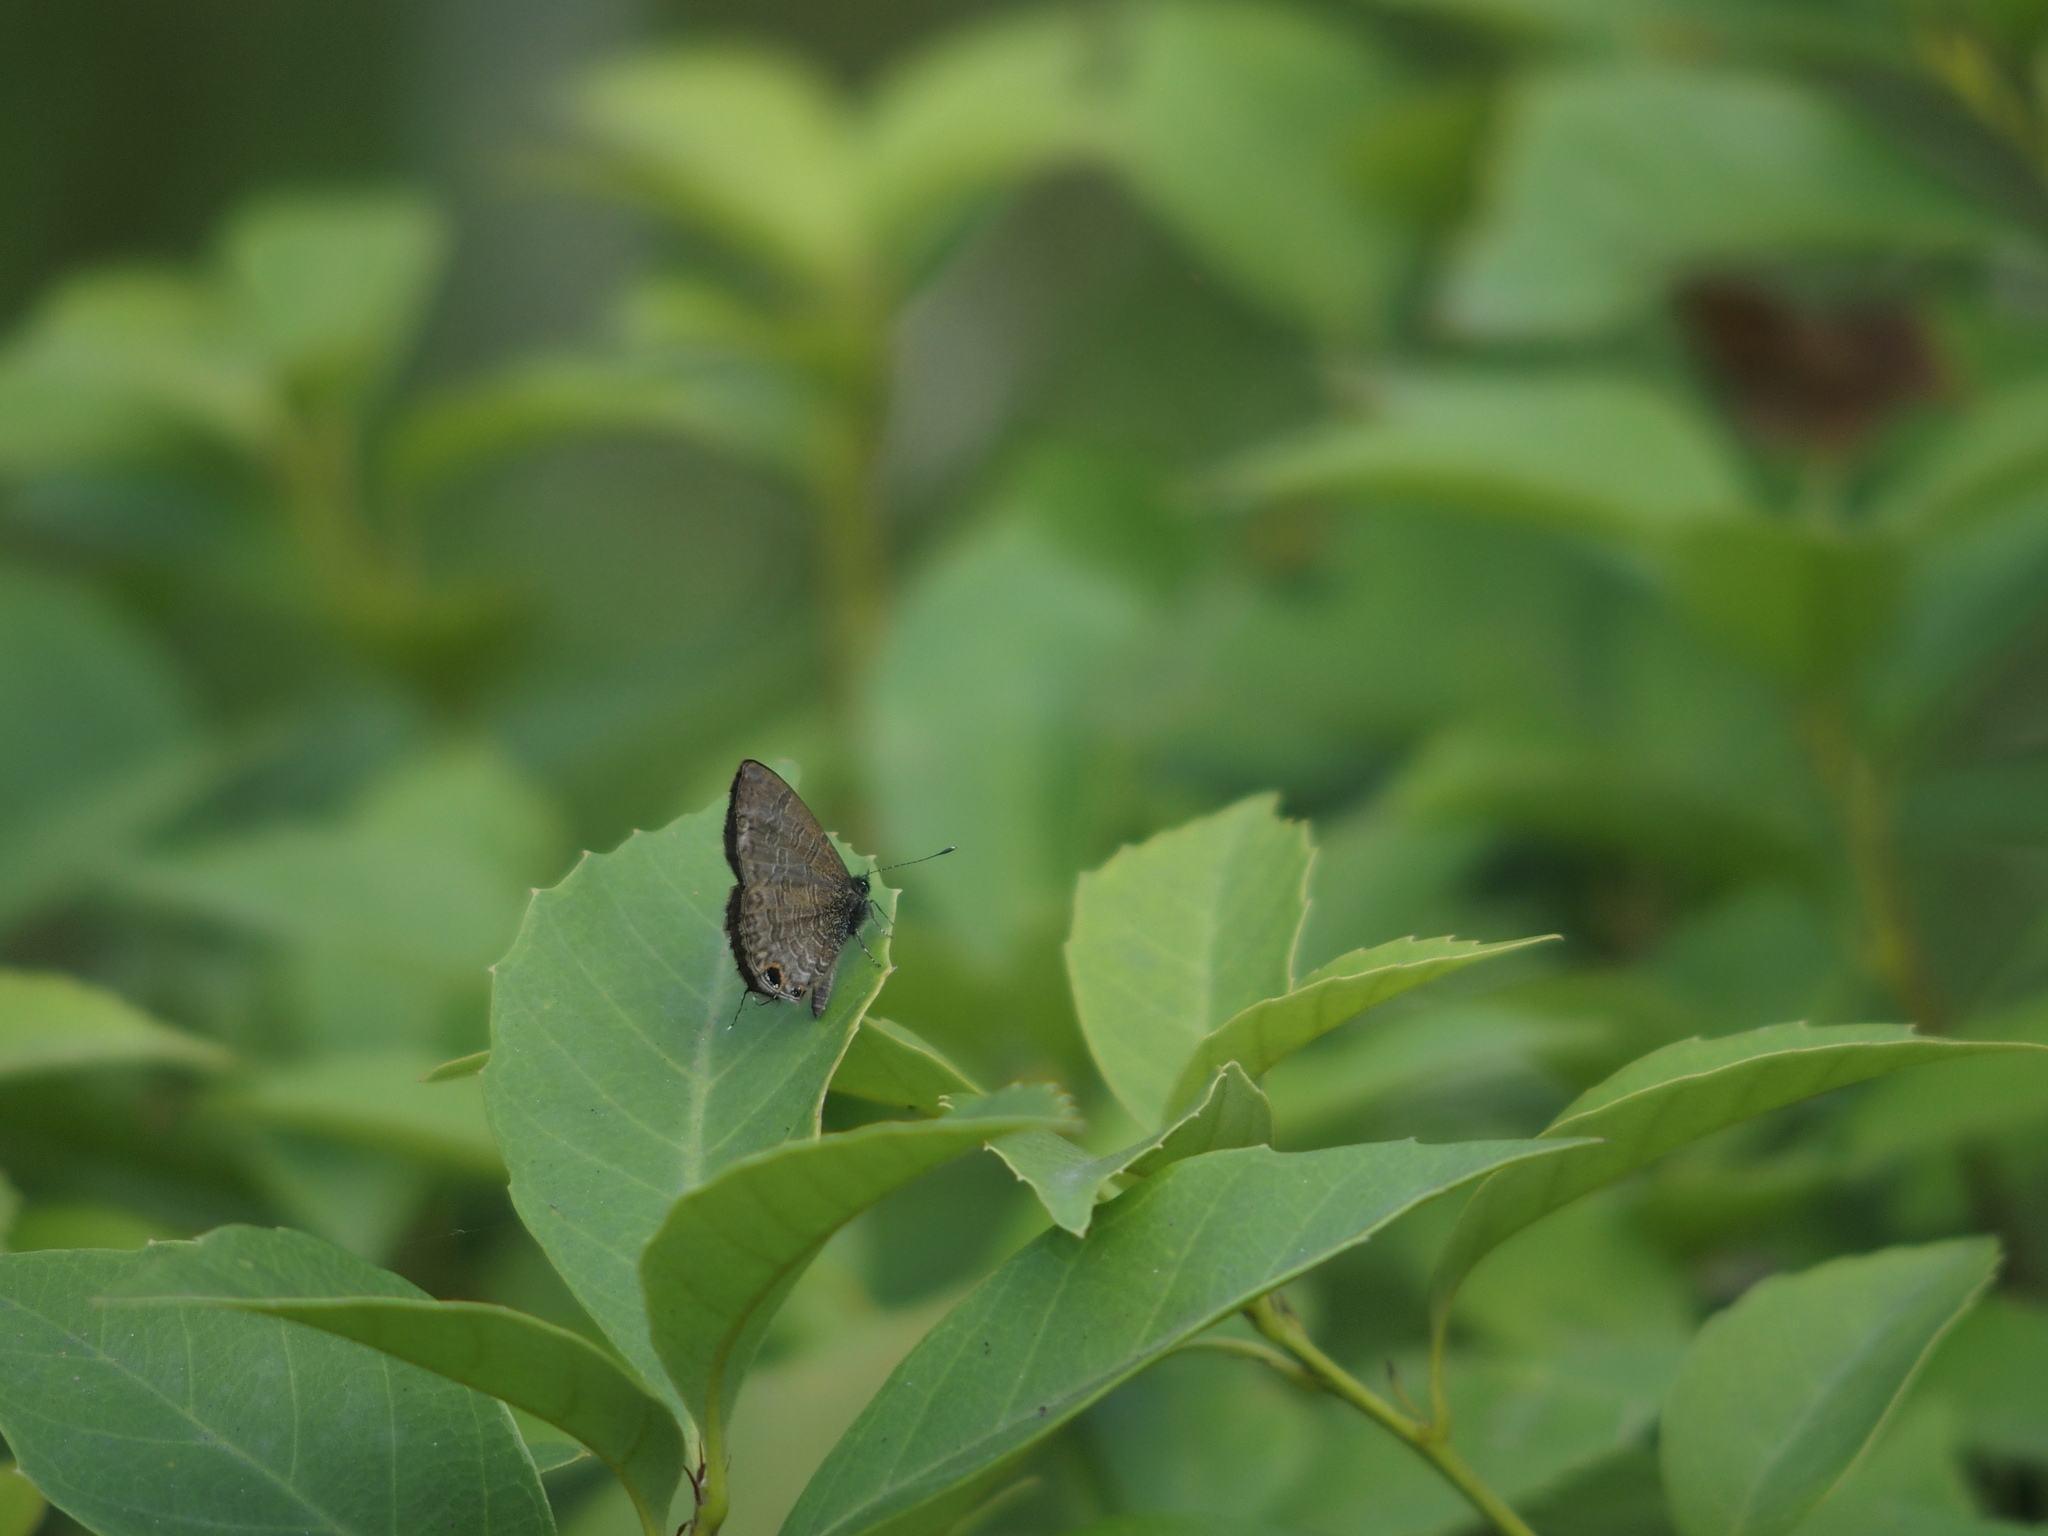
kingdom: Animalia
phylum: Arthropoda
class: Insecta
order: Lepidoptera
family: Lycaenidae
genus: Prosotas
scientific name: Prosotas nora
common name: Common line blue
